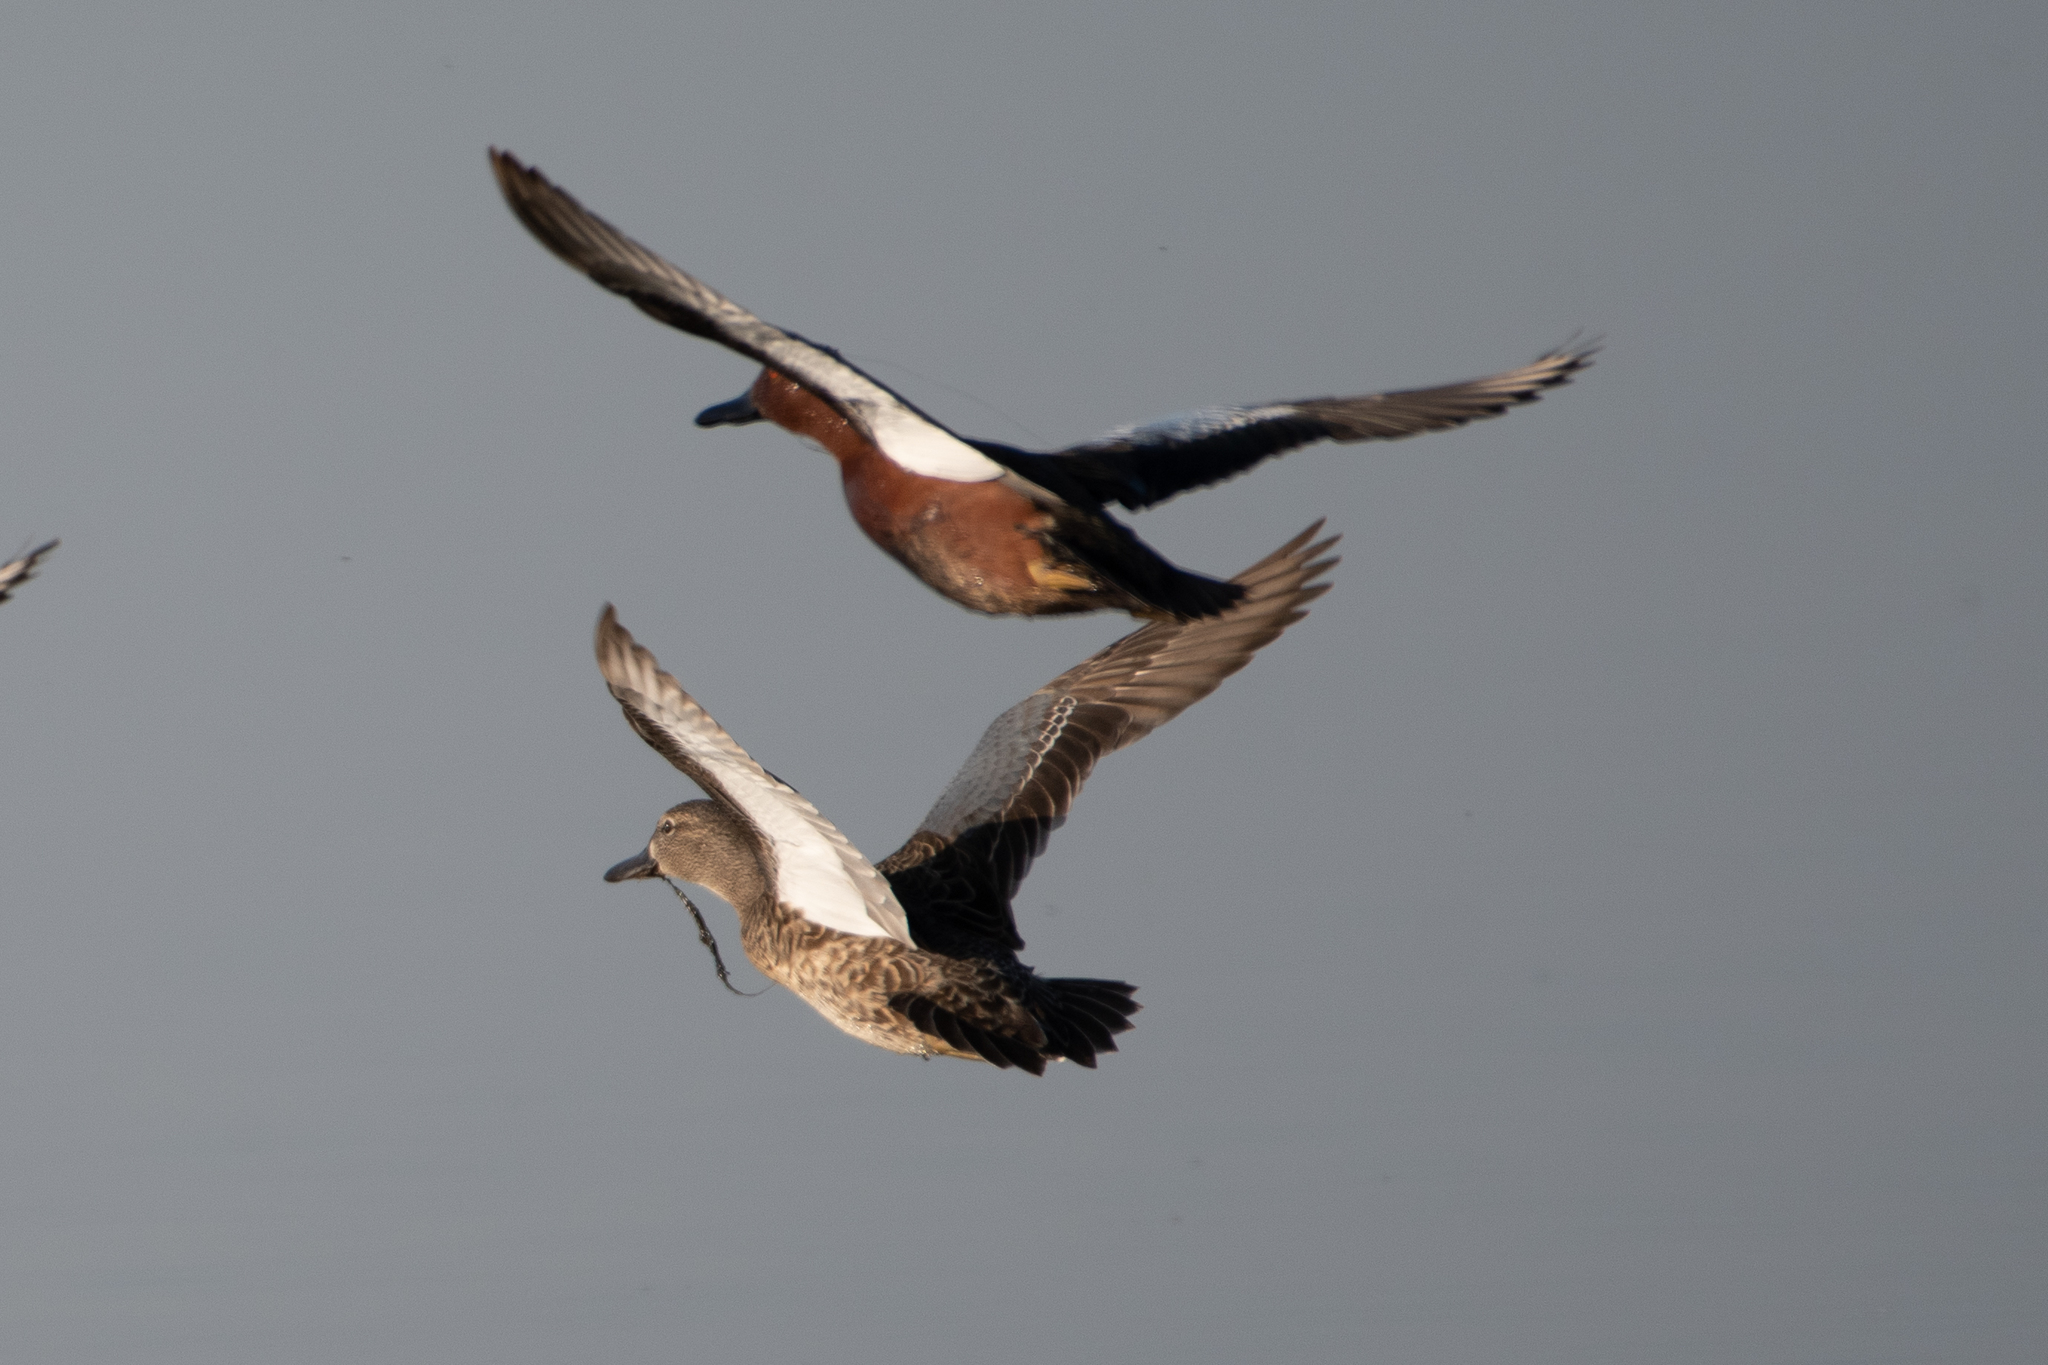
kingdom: Animalia
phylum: Chordata
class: Aves
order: Anseriformes
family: Anatidae
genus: Spatula
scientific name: Spatula cyanoptera
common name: Cinnamon teal
